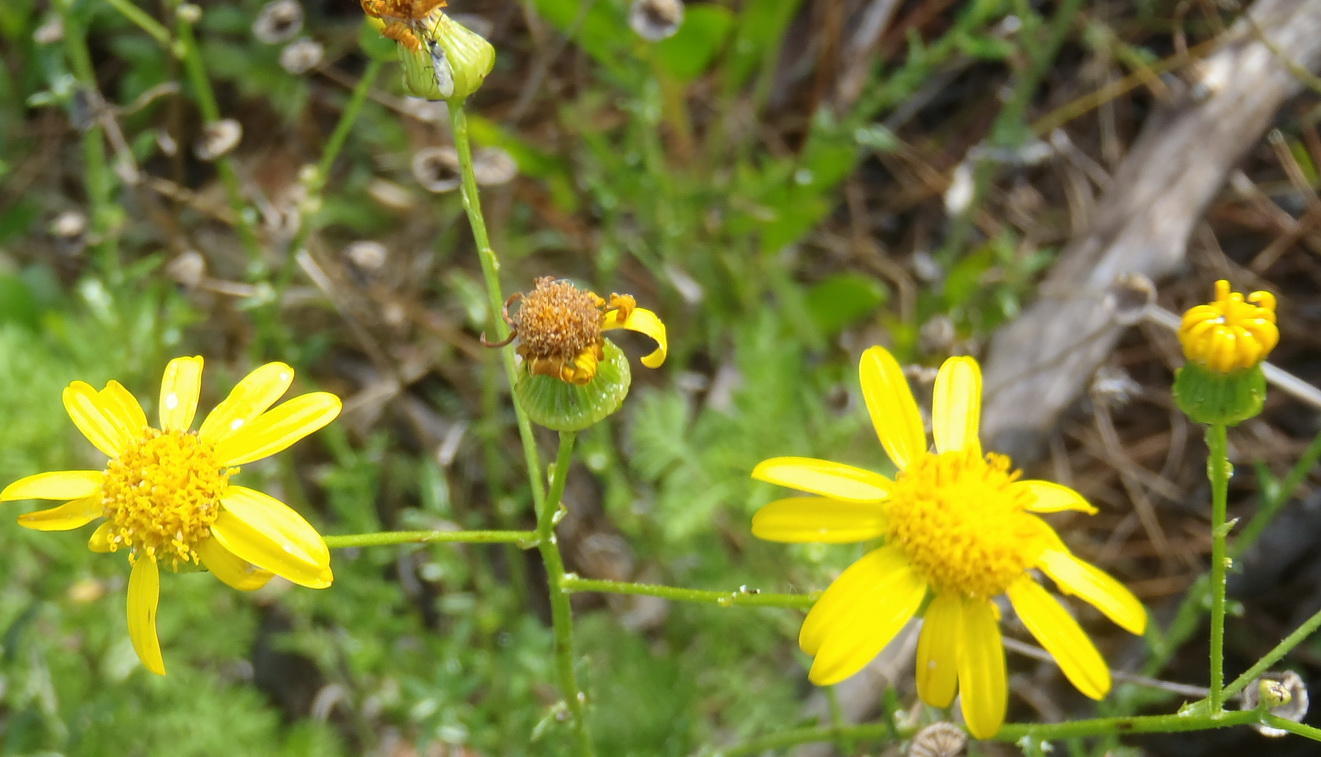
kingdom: Plantae
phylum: Tracheophyta
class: Magnoliopsida
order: Asterales
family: Asteraceae
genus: Senecio
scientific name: Senecio ilicifolius
